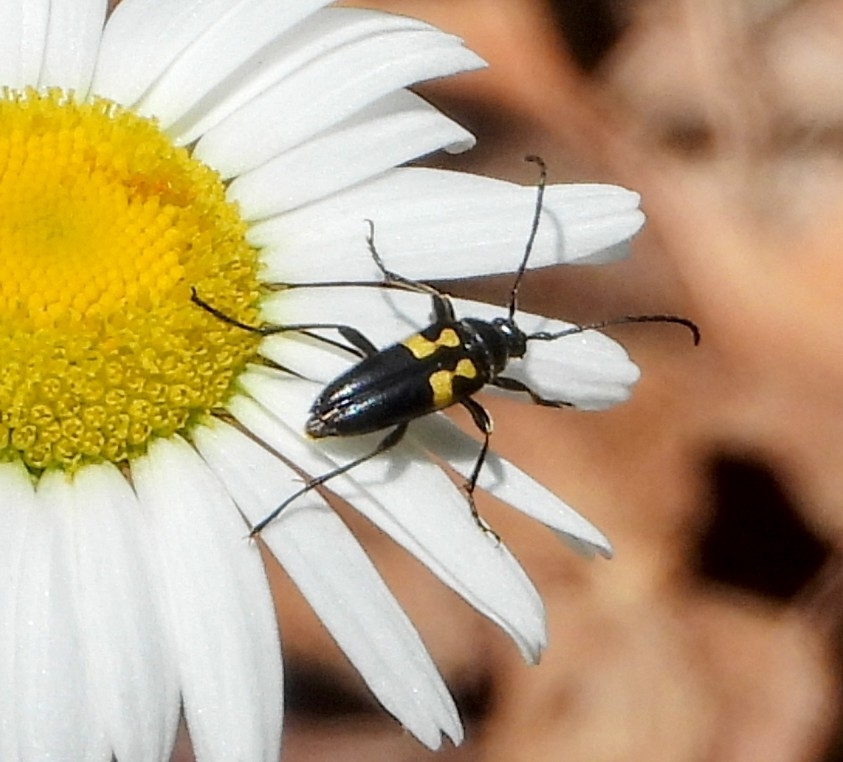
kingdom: Animalia
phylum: Arthropoda
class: Insecta
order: Coleoptera
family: Cerambycidae
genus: Typocerus
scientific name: Typocerus lunulatus
